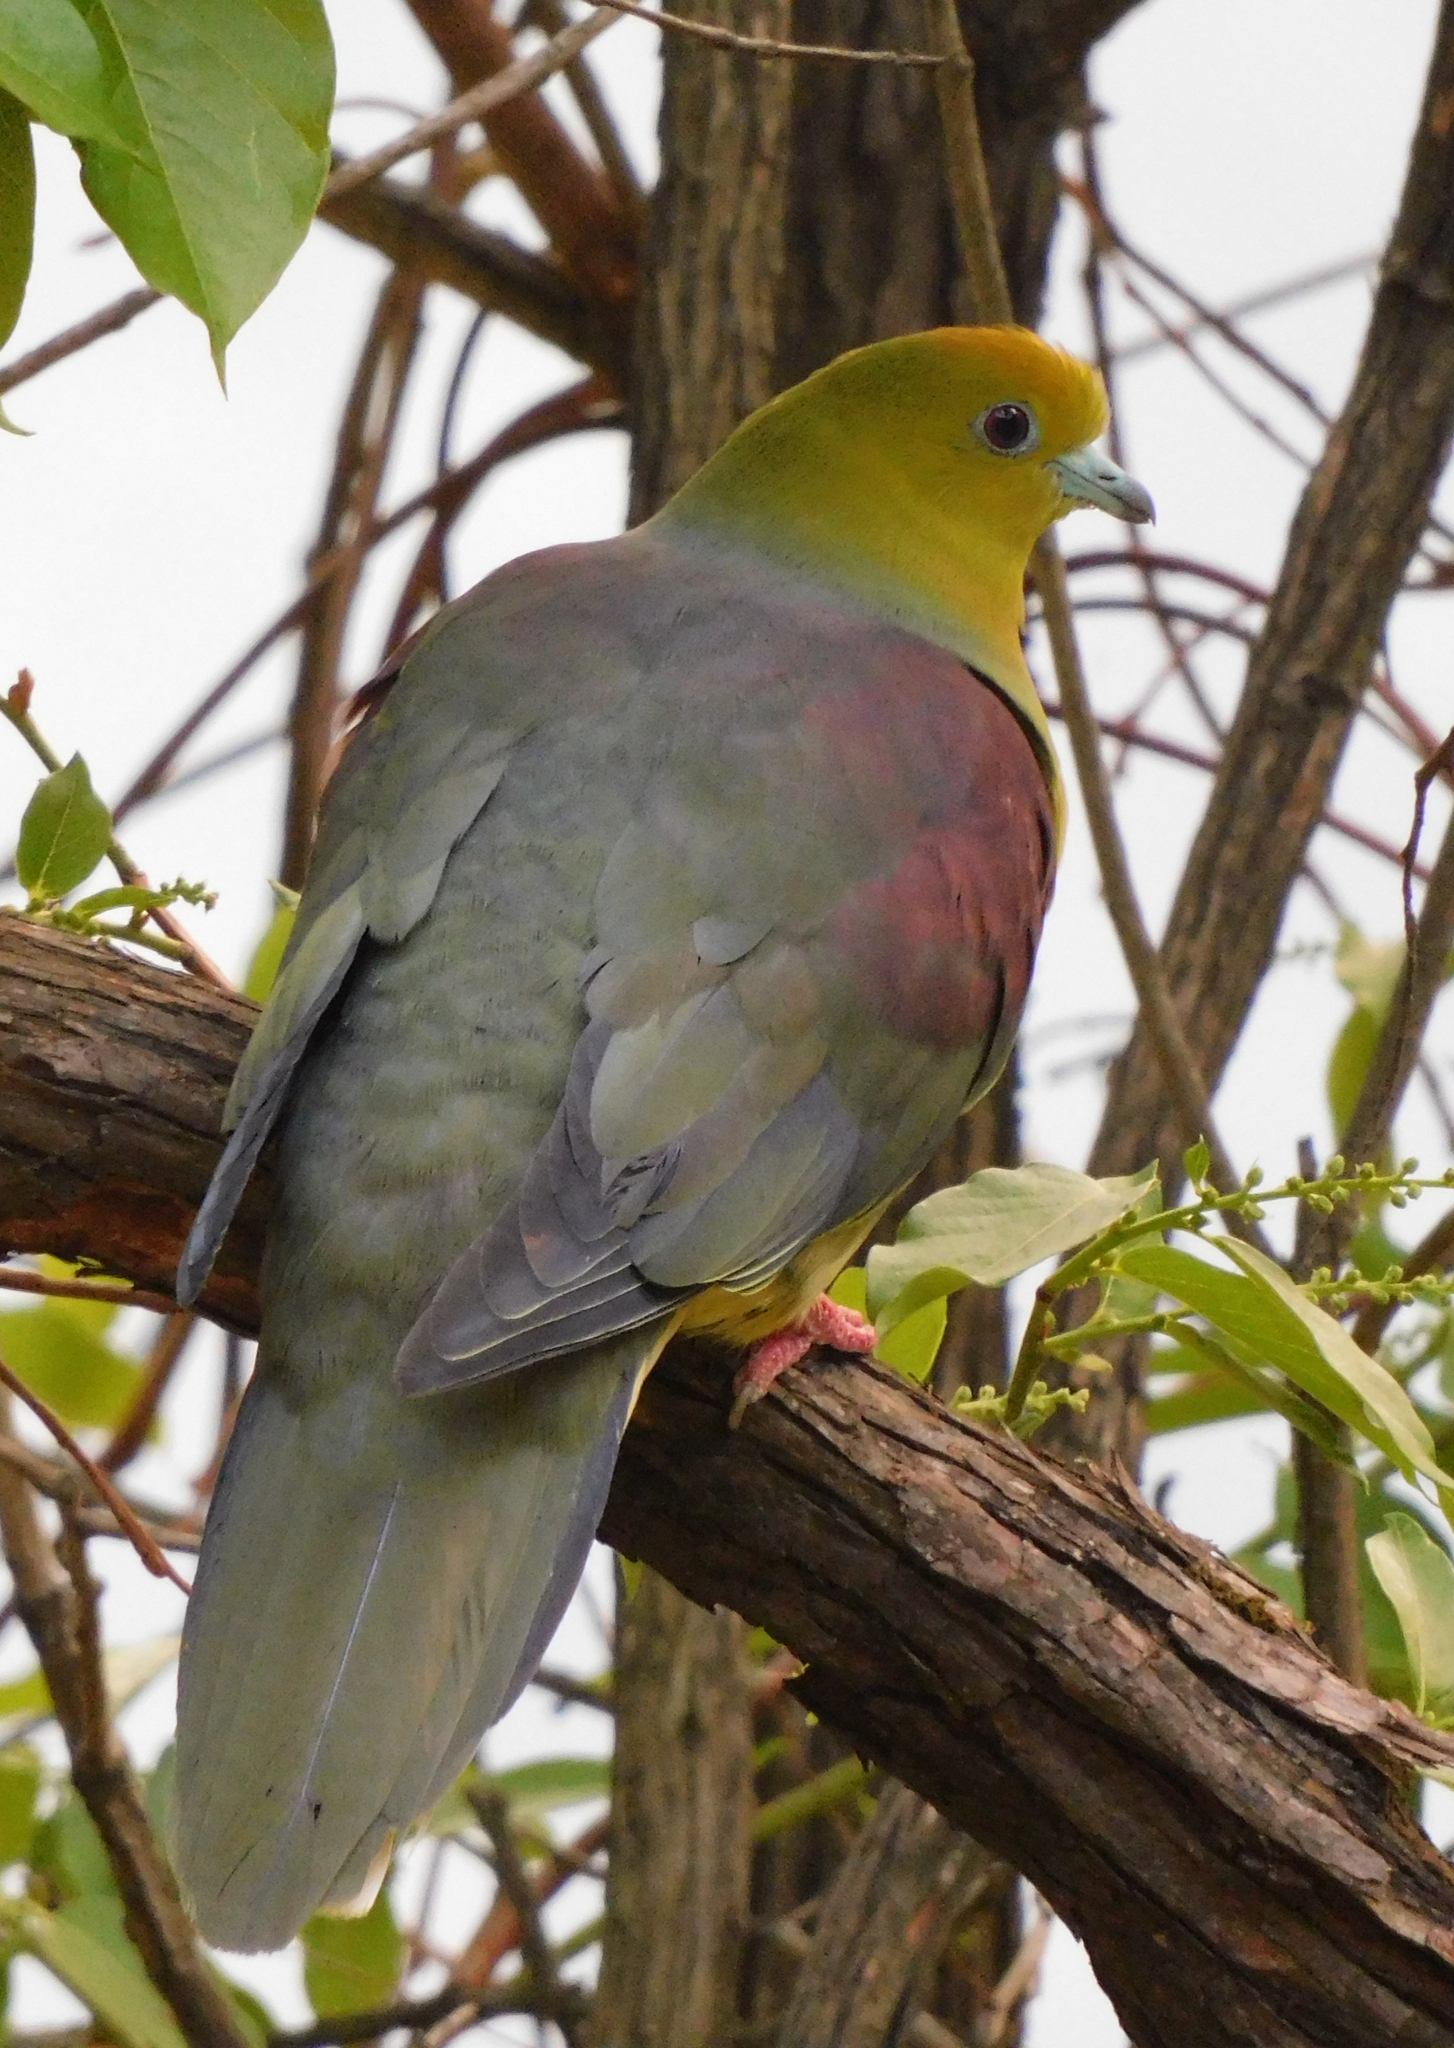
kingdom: Animalia
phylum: Chordata
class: Aves
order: Columbiformes
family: Columbidae
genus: Treron
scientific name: Treron sphenurus
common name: Wedge-tailed green pigeon
